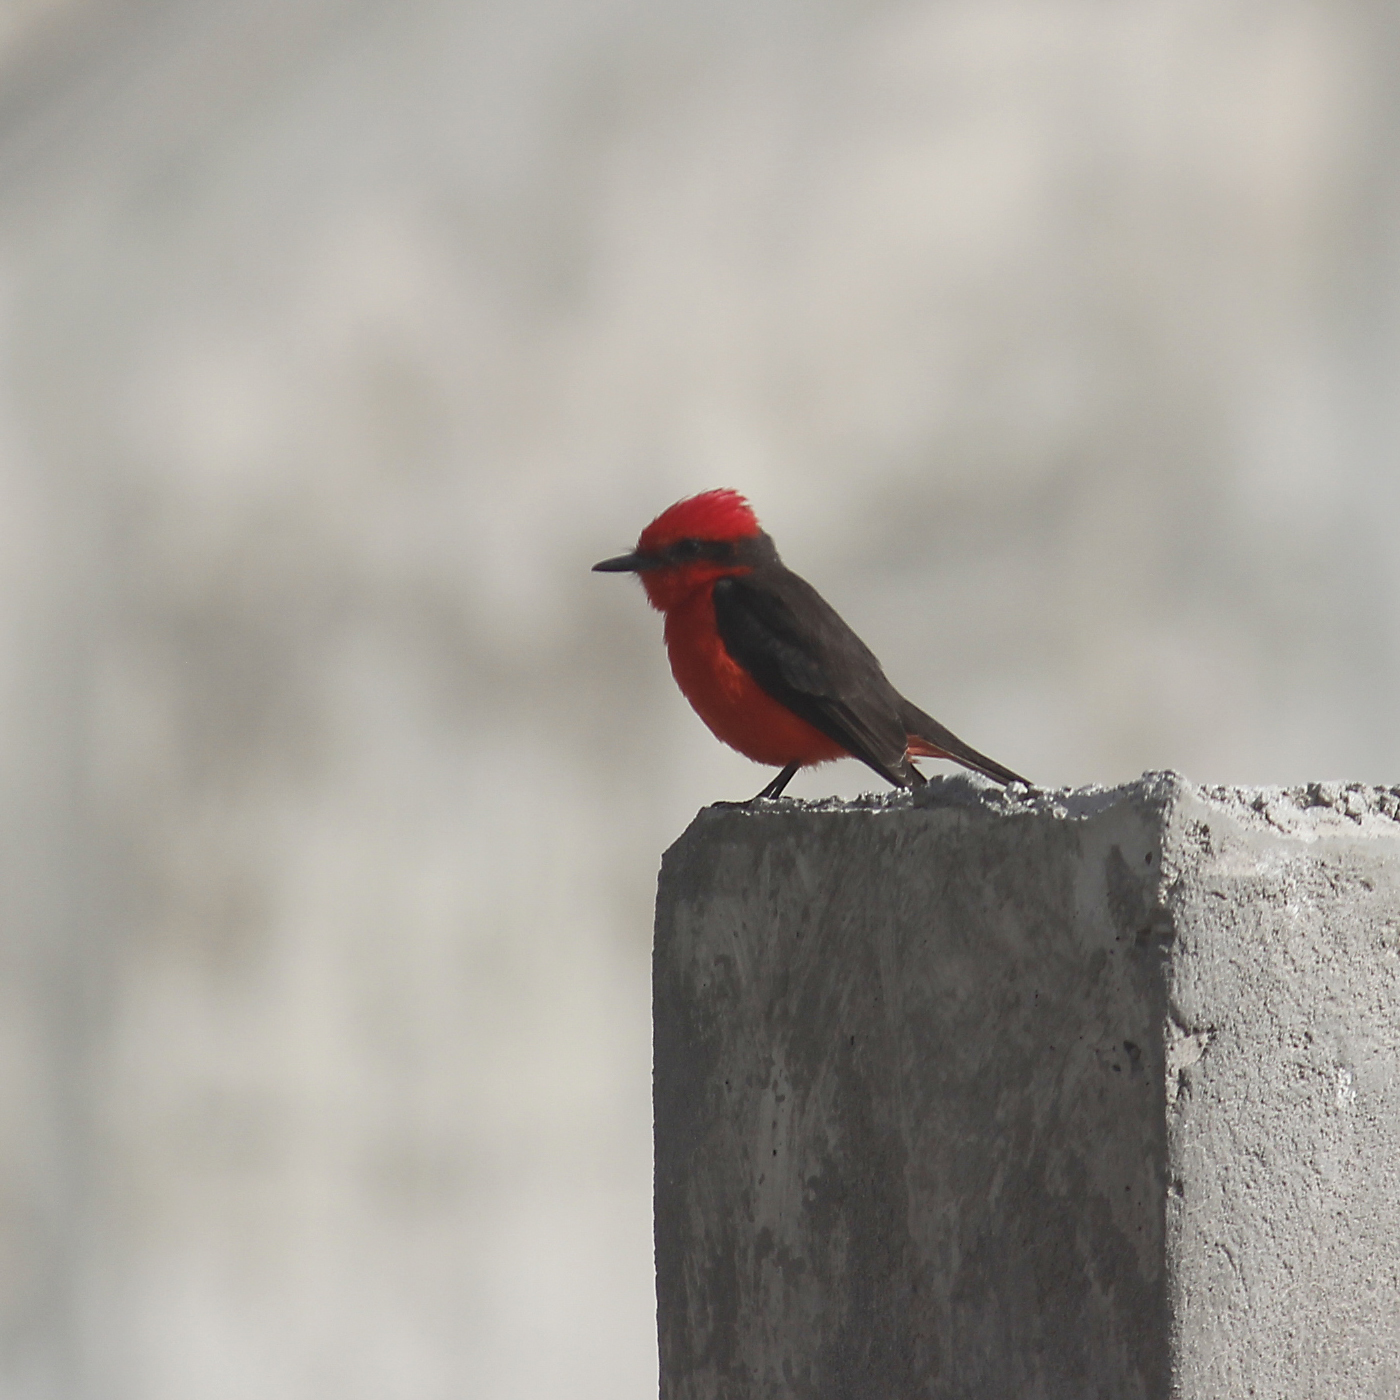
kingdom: Animalia
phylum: Chordata
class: Aves
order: Passeriformes
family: Tyrannidae
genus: Pyrocephalus
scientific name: Pyrocephalus rubinus
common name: Vermilion flycatcher
